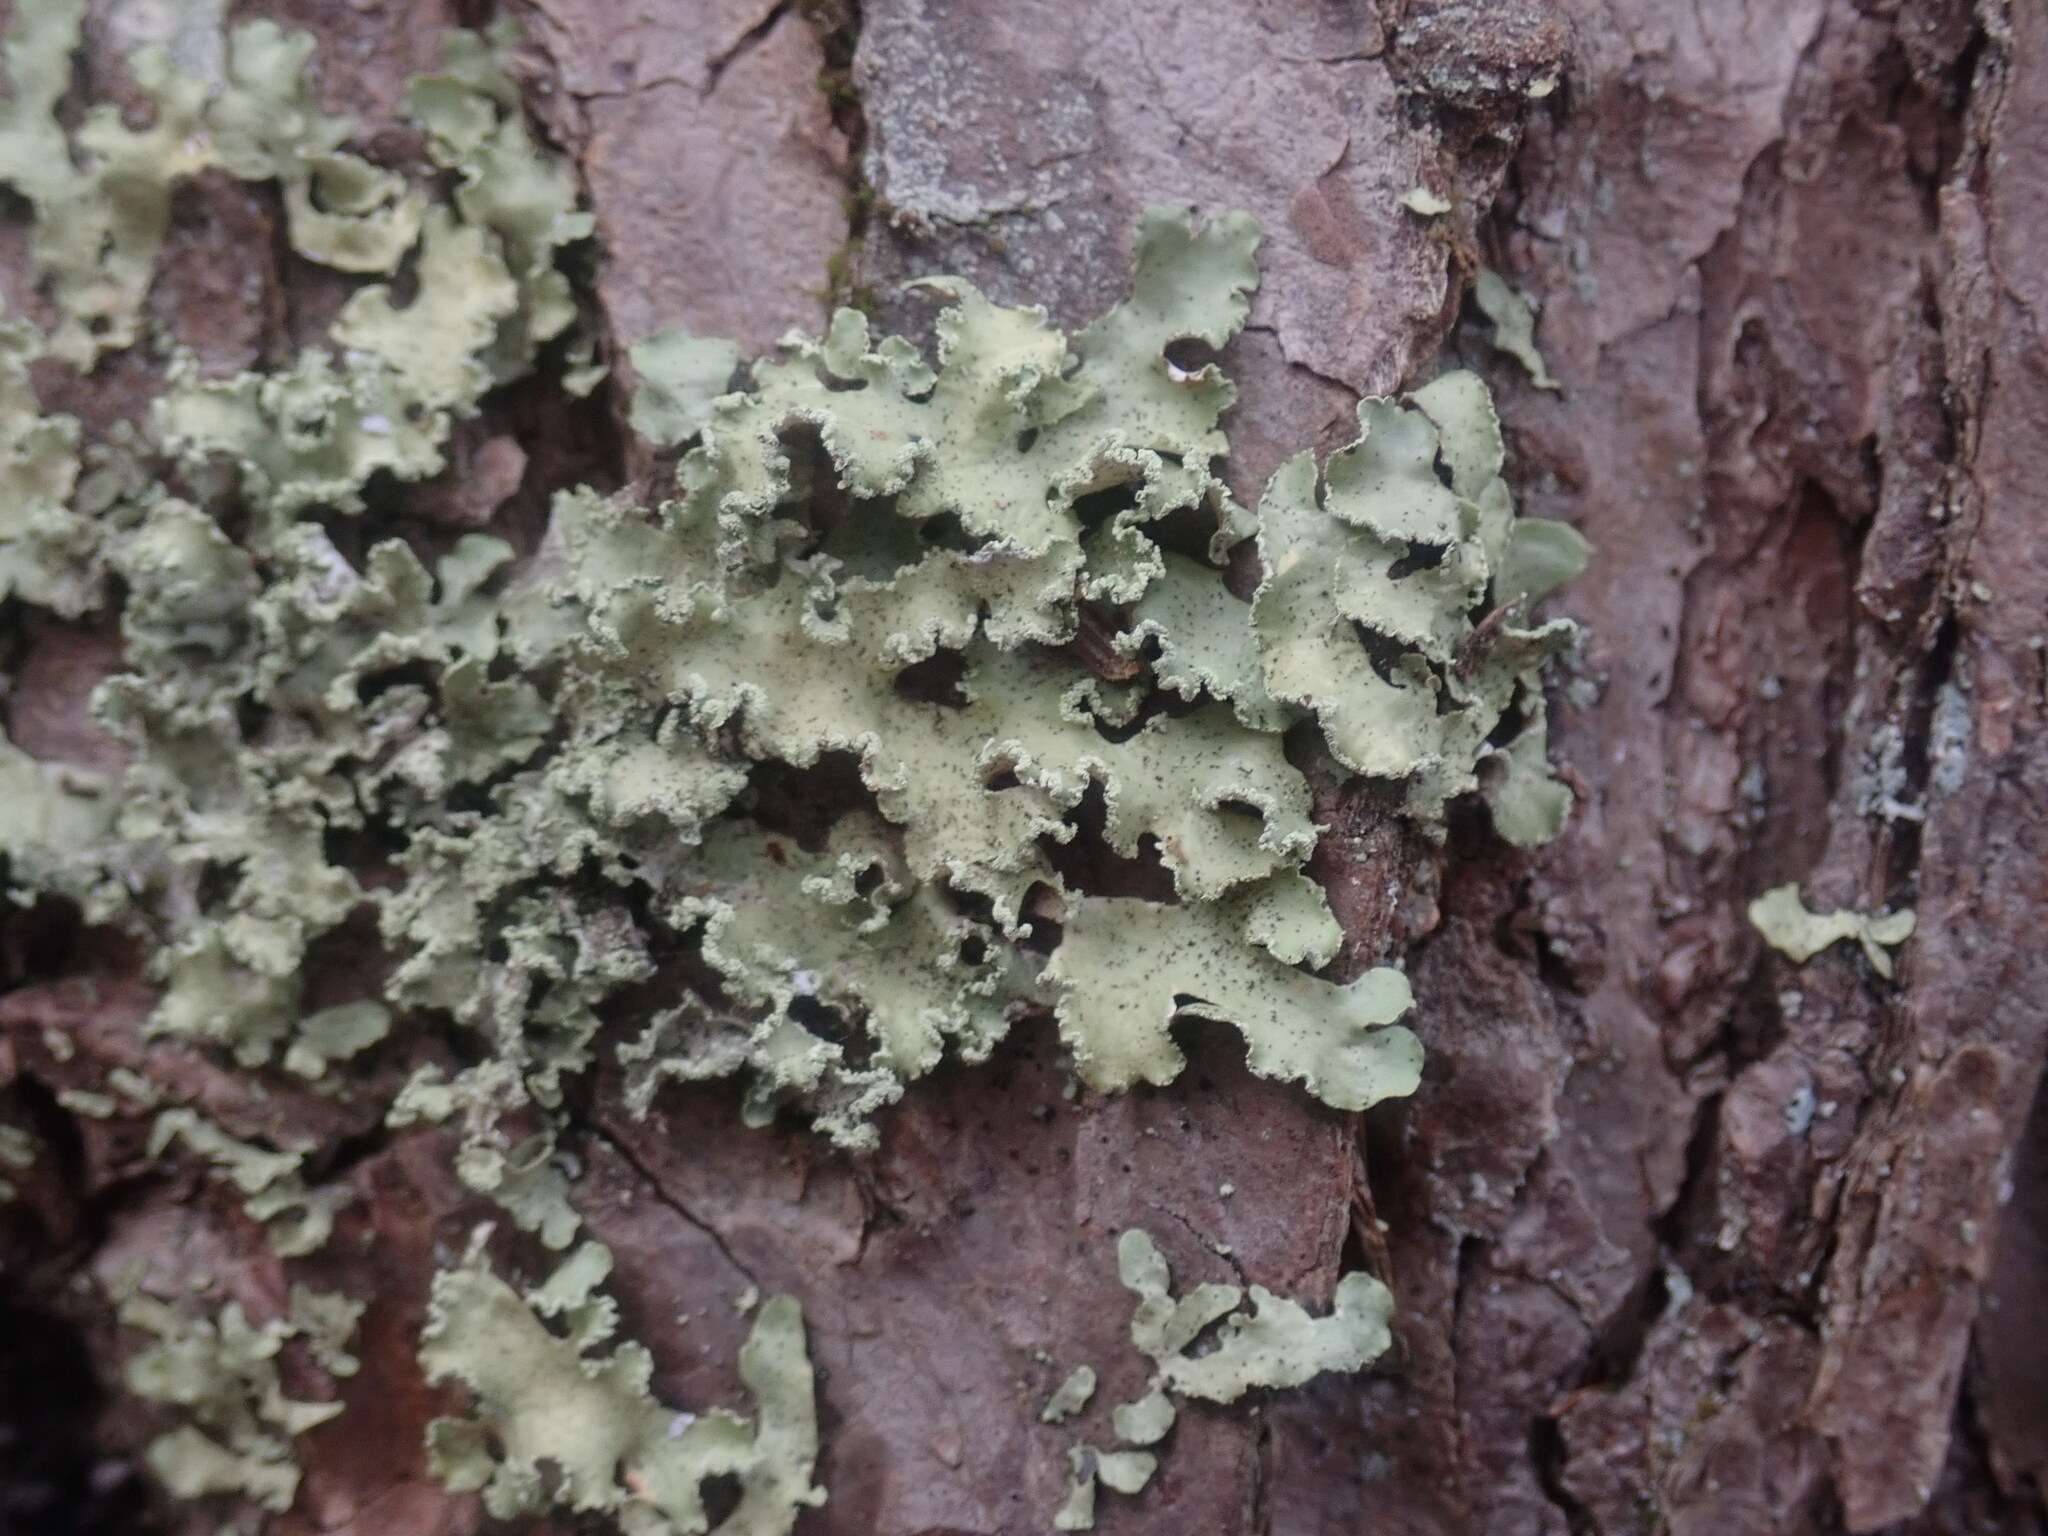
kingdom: Fungi
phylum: Ascomycota
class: Lecanoromycetes
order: Lecanorales
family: Parmeliaceae
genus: Usnocetraria
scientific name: Usnocetraria oakesiana
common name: Yellow ribbon lichen
